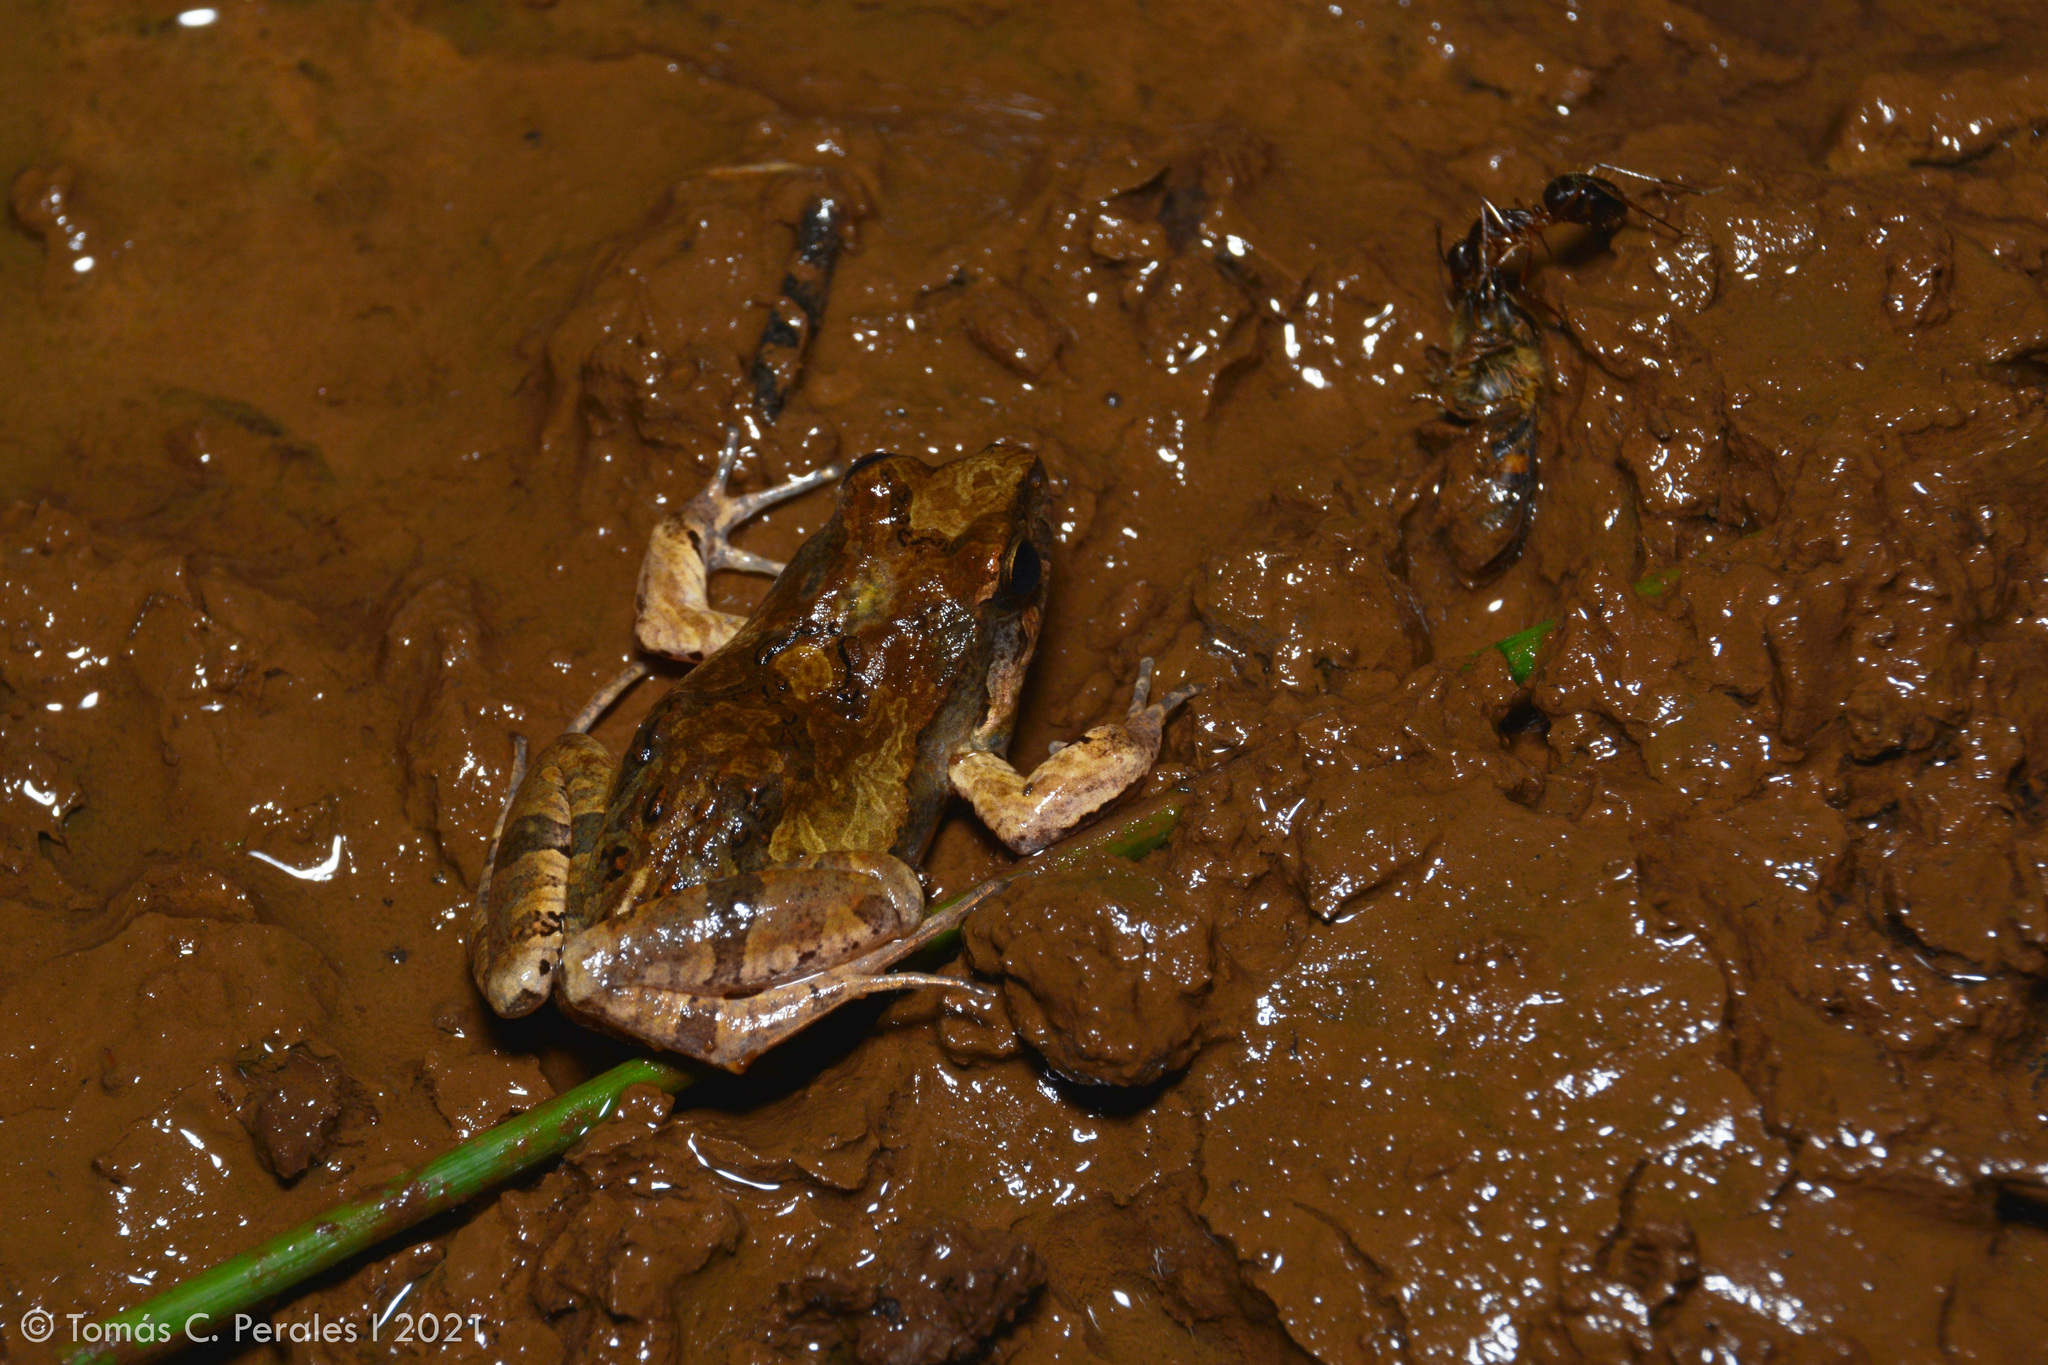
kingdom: Animalia
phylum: Chordata
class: Amphibia
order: Anura
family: Leptodactylidae
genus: Physalaemus
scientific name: Physalaemus cuvieri
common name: Barker frog
